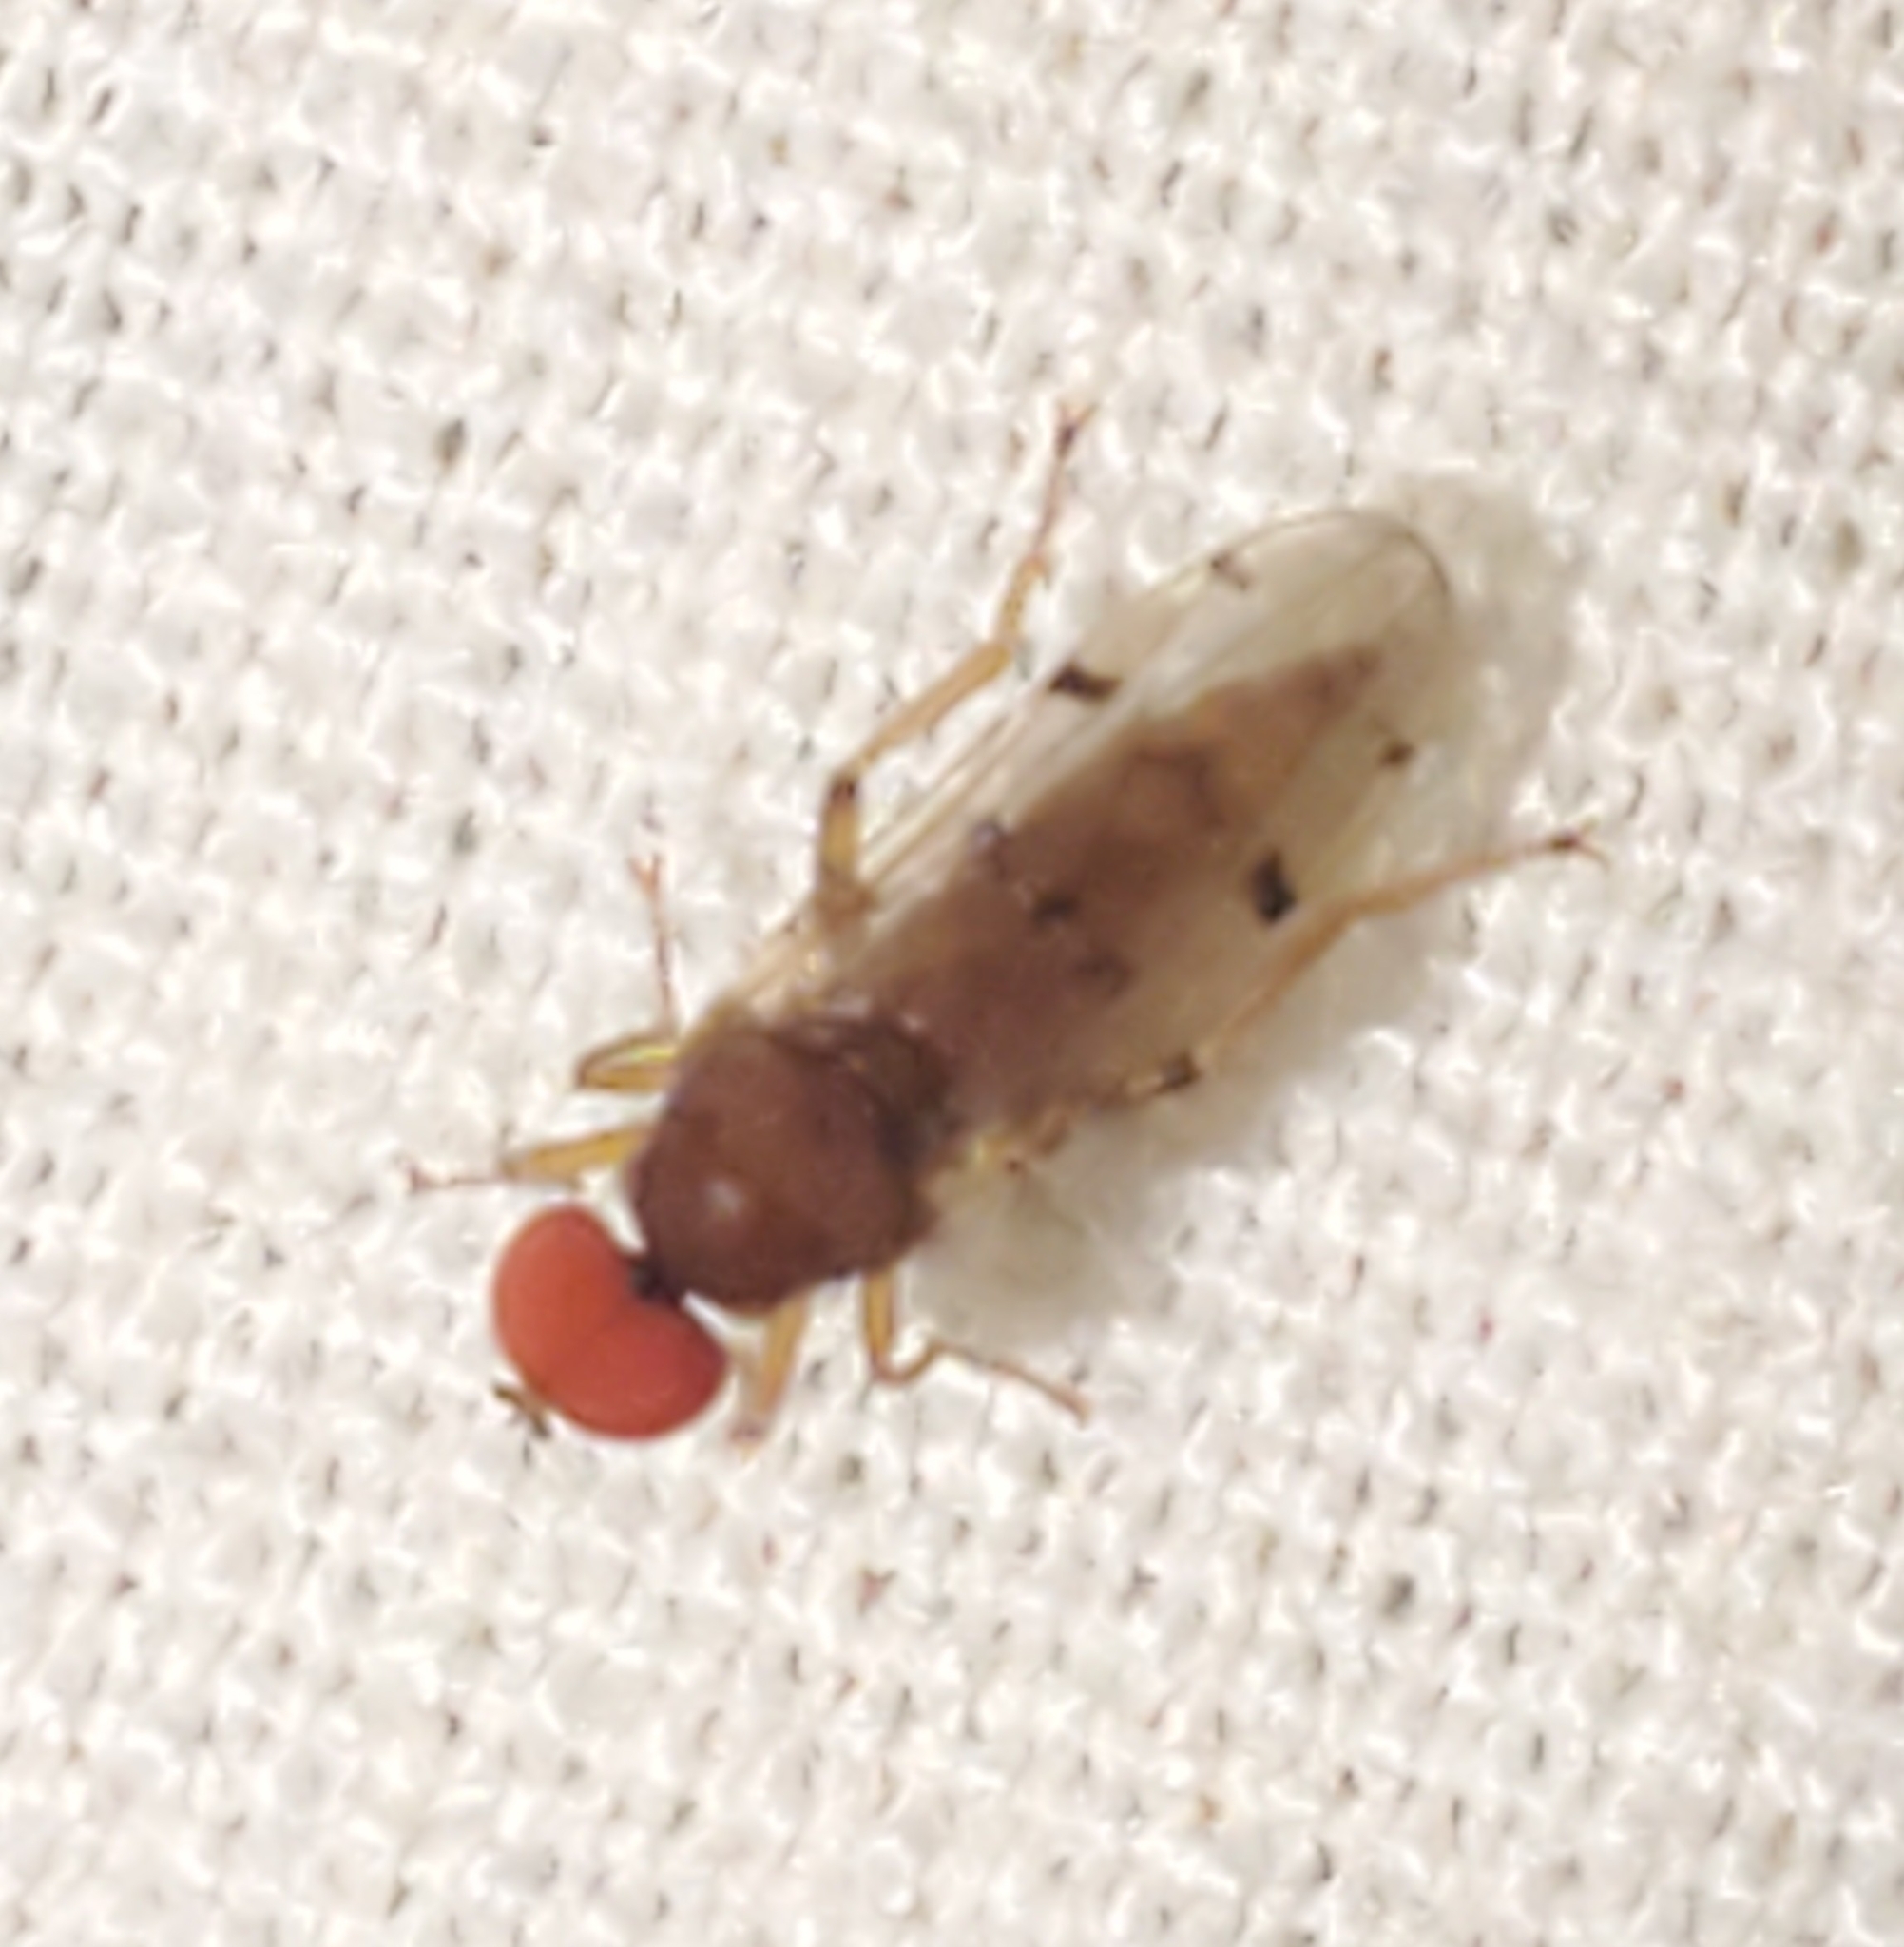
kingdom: Animalia
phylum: Arthropoda
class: Insecta
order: Diptera
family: Hybotidae
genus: Syneches
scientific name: Syneches simplex
